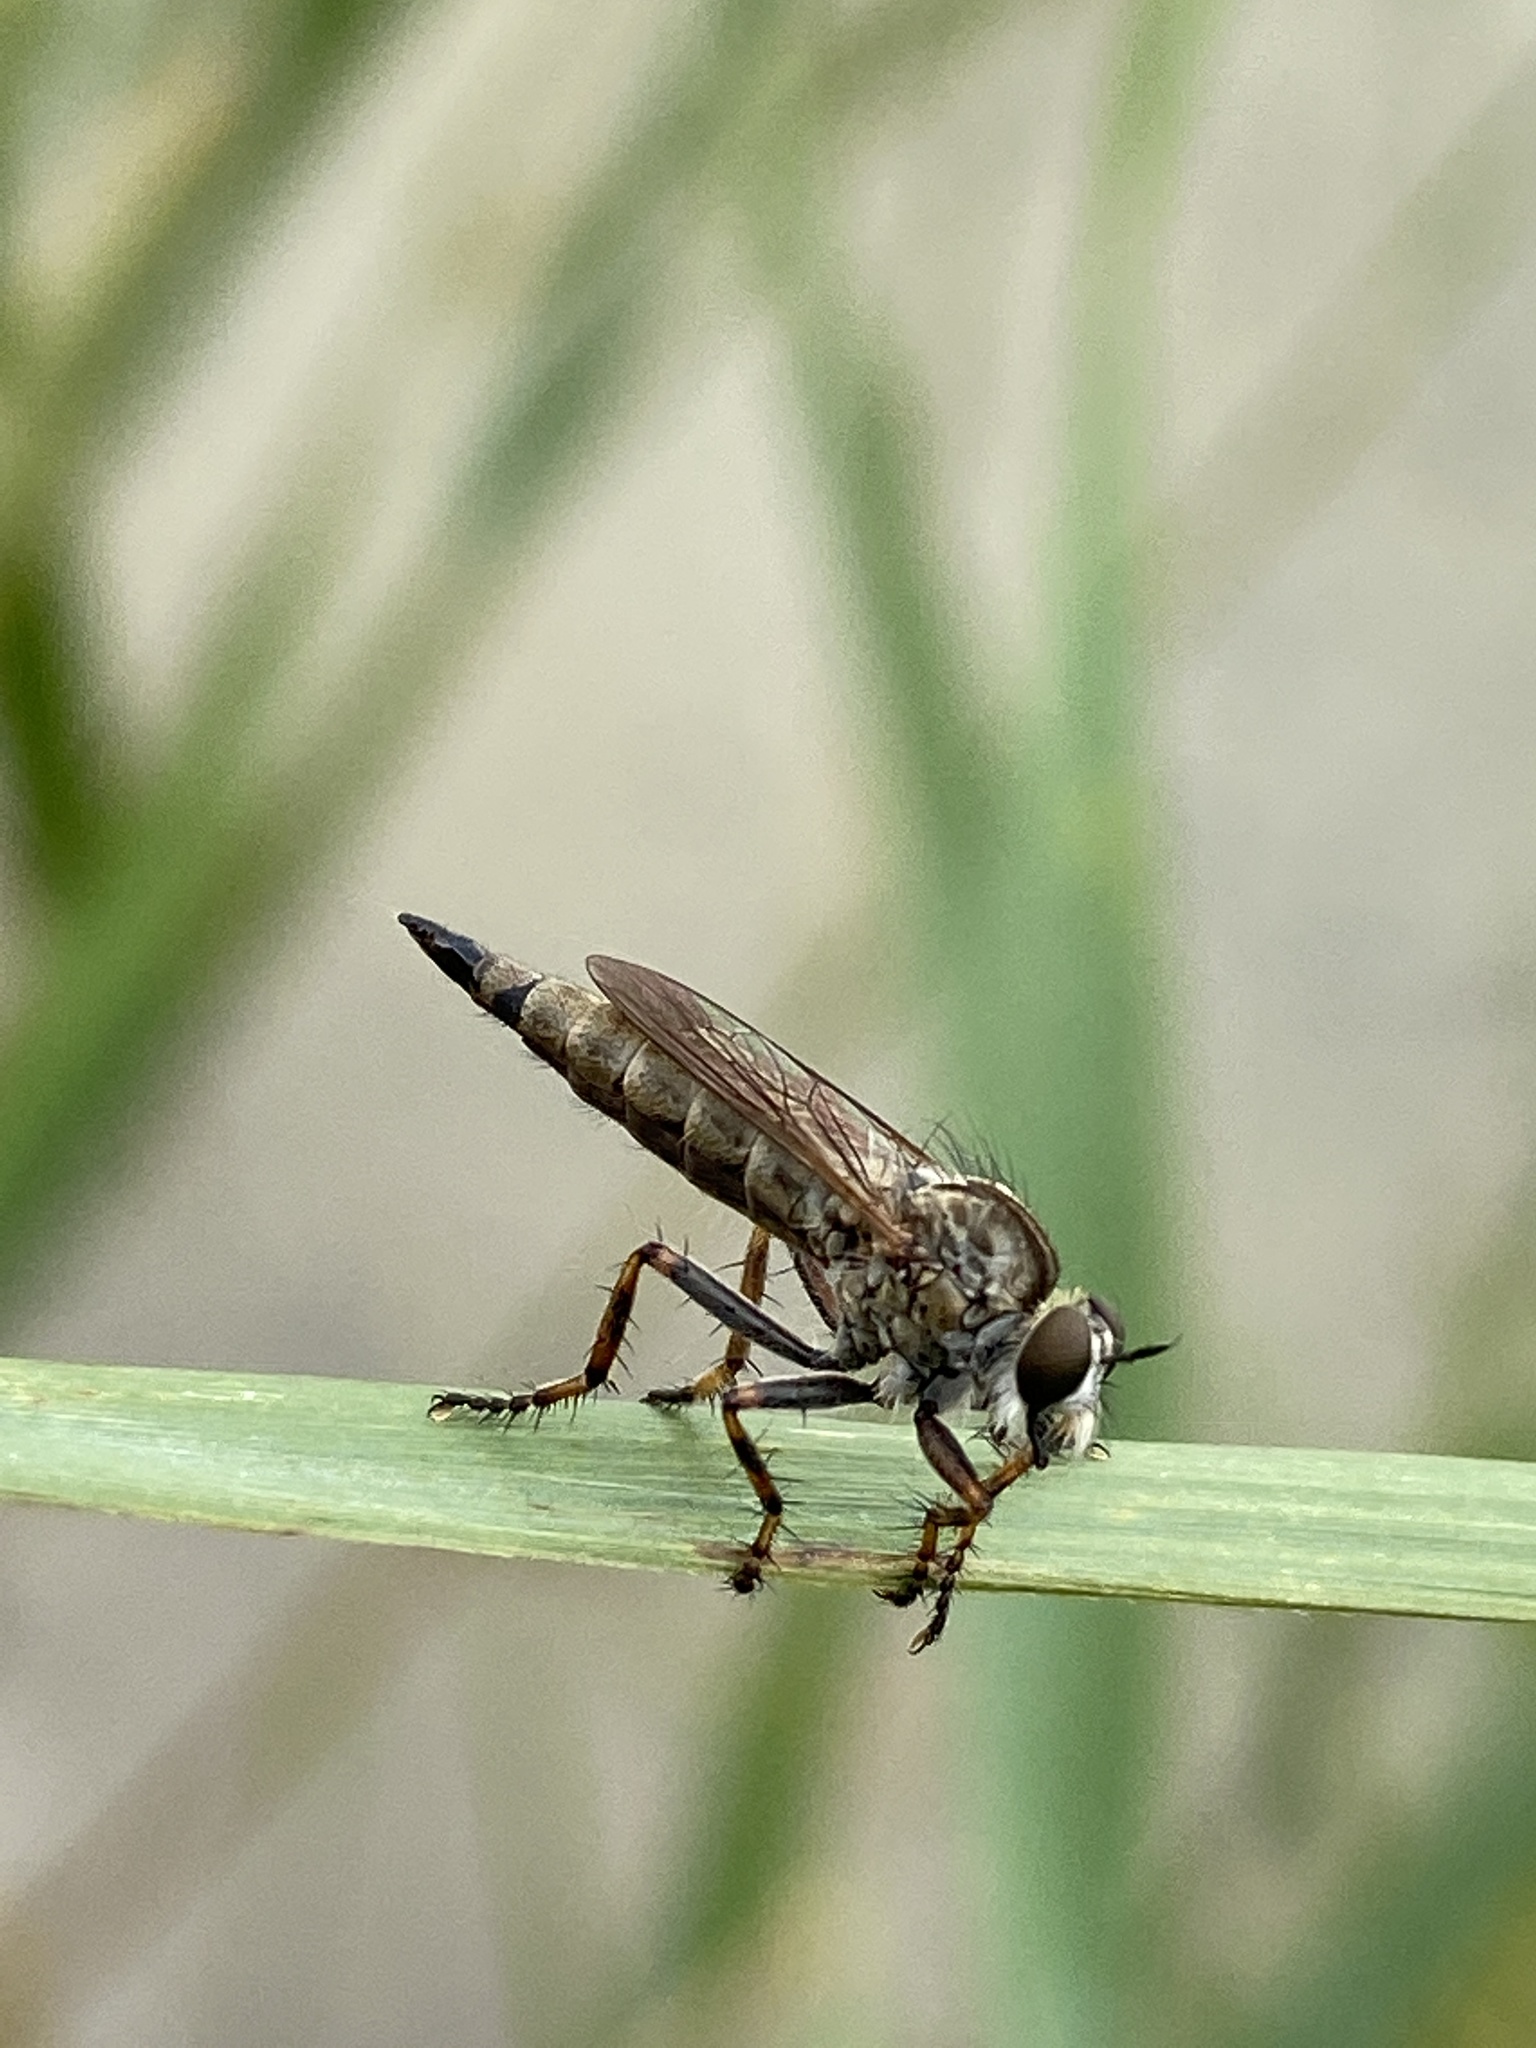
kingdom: Animalia
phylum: Arthropoda
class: Insecta
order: Diptera
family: Asilidae
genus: Epitriptus
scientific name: Epitriptus cingulatus
